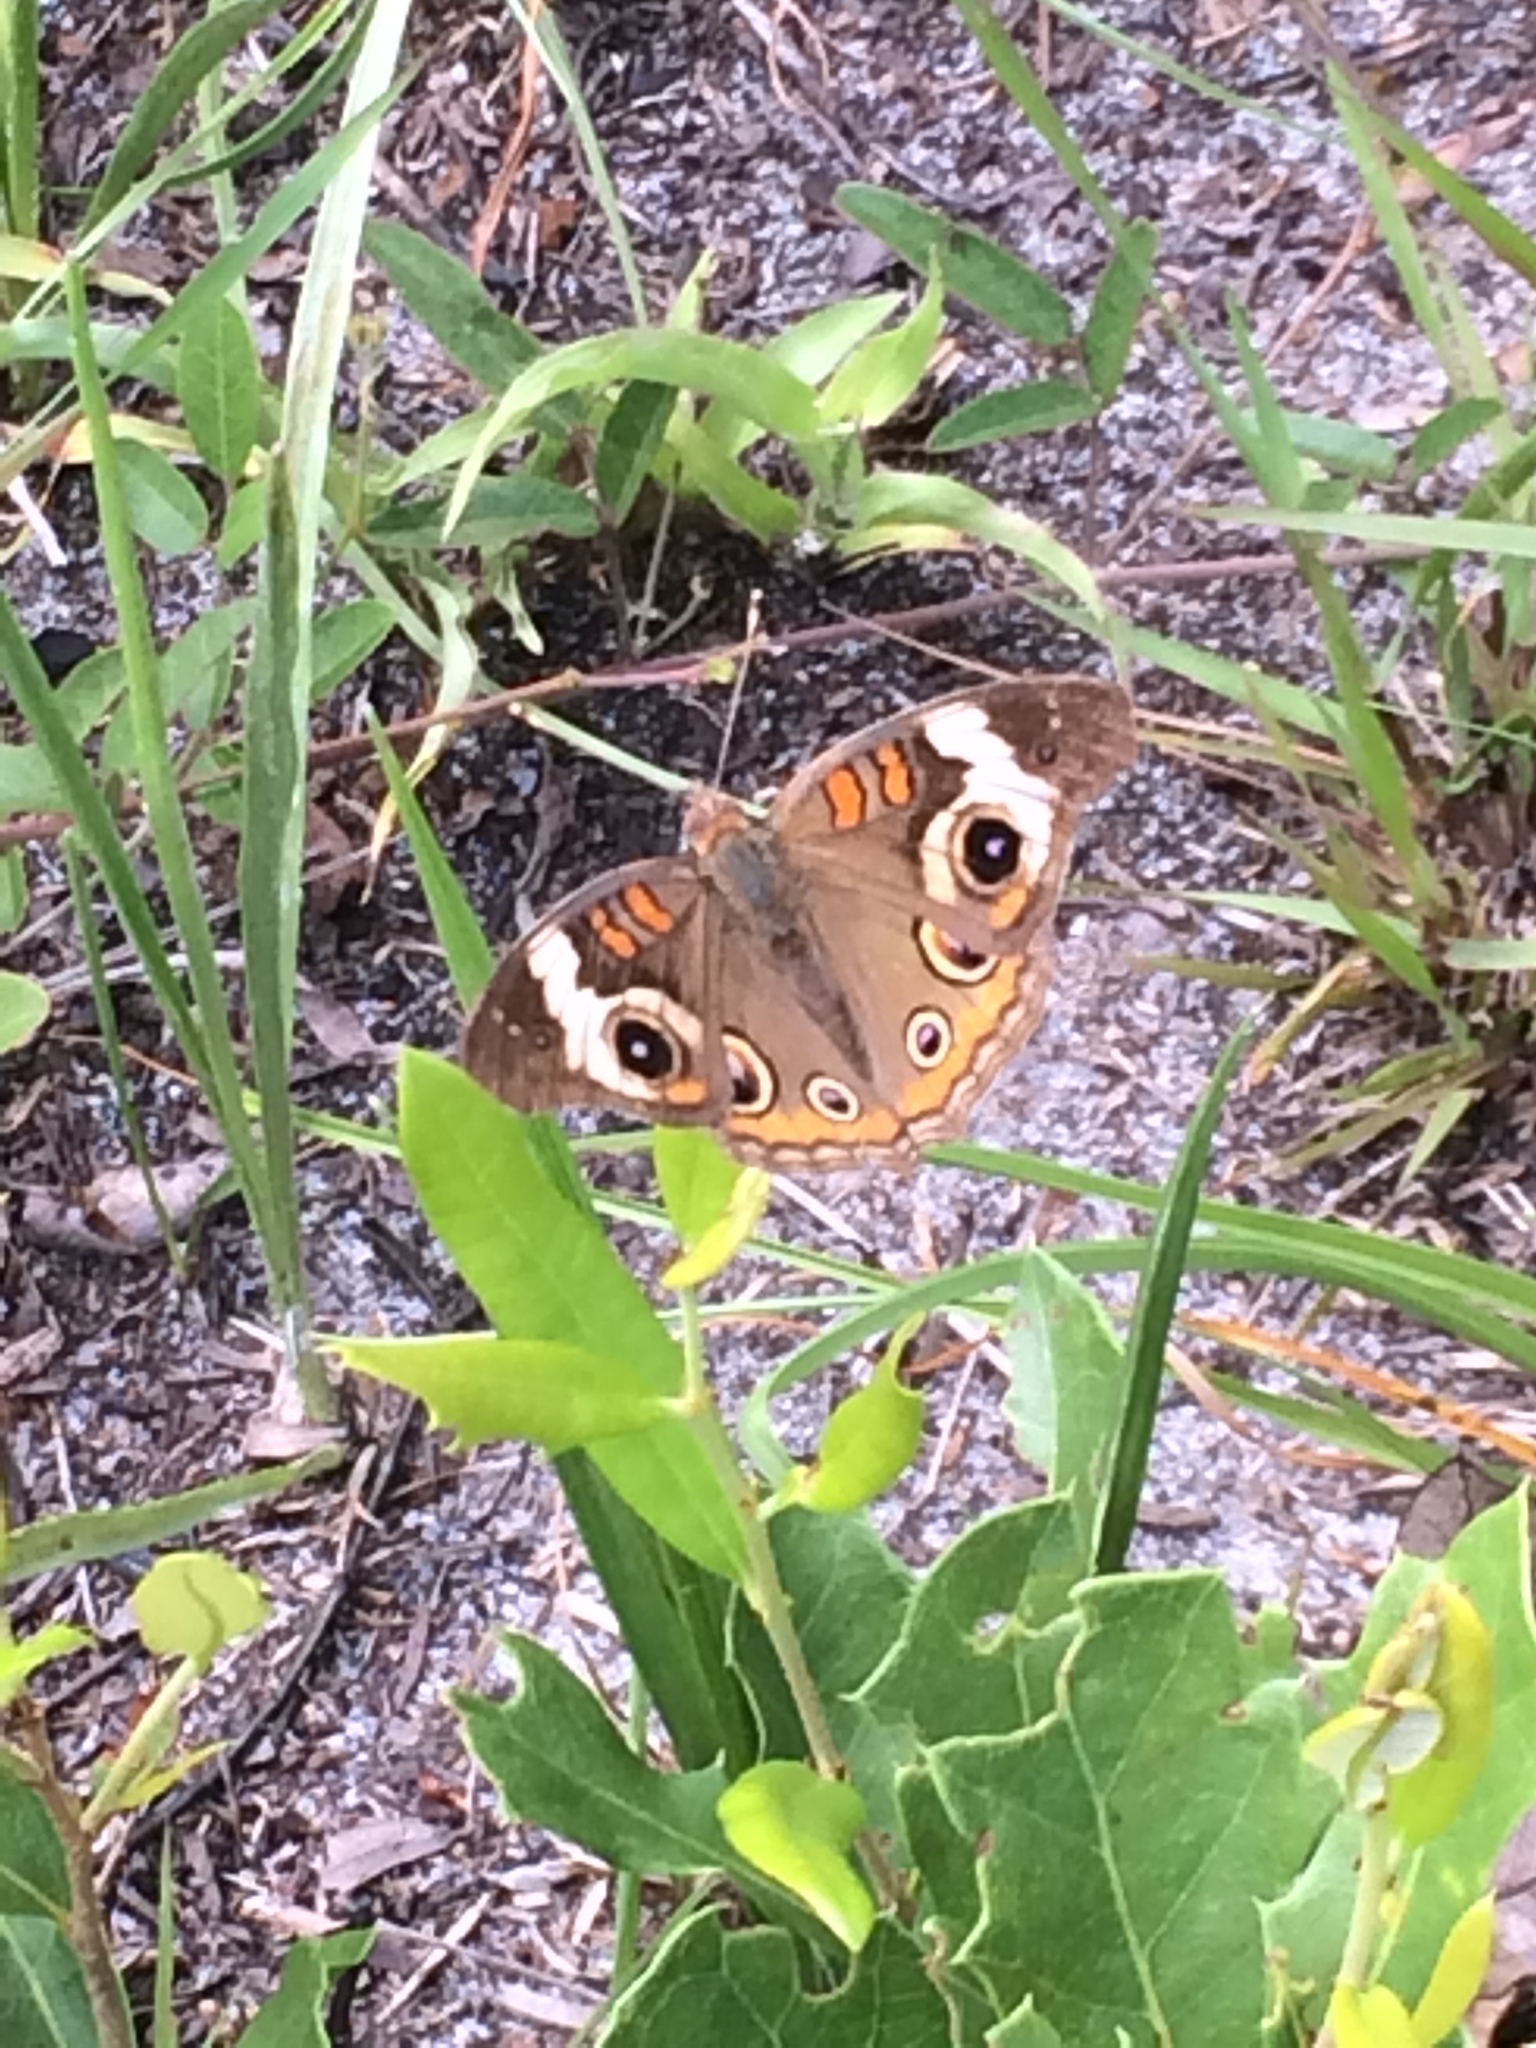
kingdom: Animalia
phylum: Arthropoda
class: Insecta
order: Lepidoptera
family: Nymphalidae
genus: Junonia
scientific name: Junonia coenia
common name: Common buckeye
